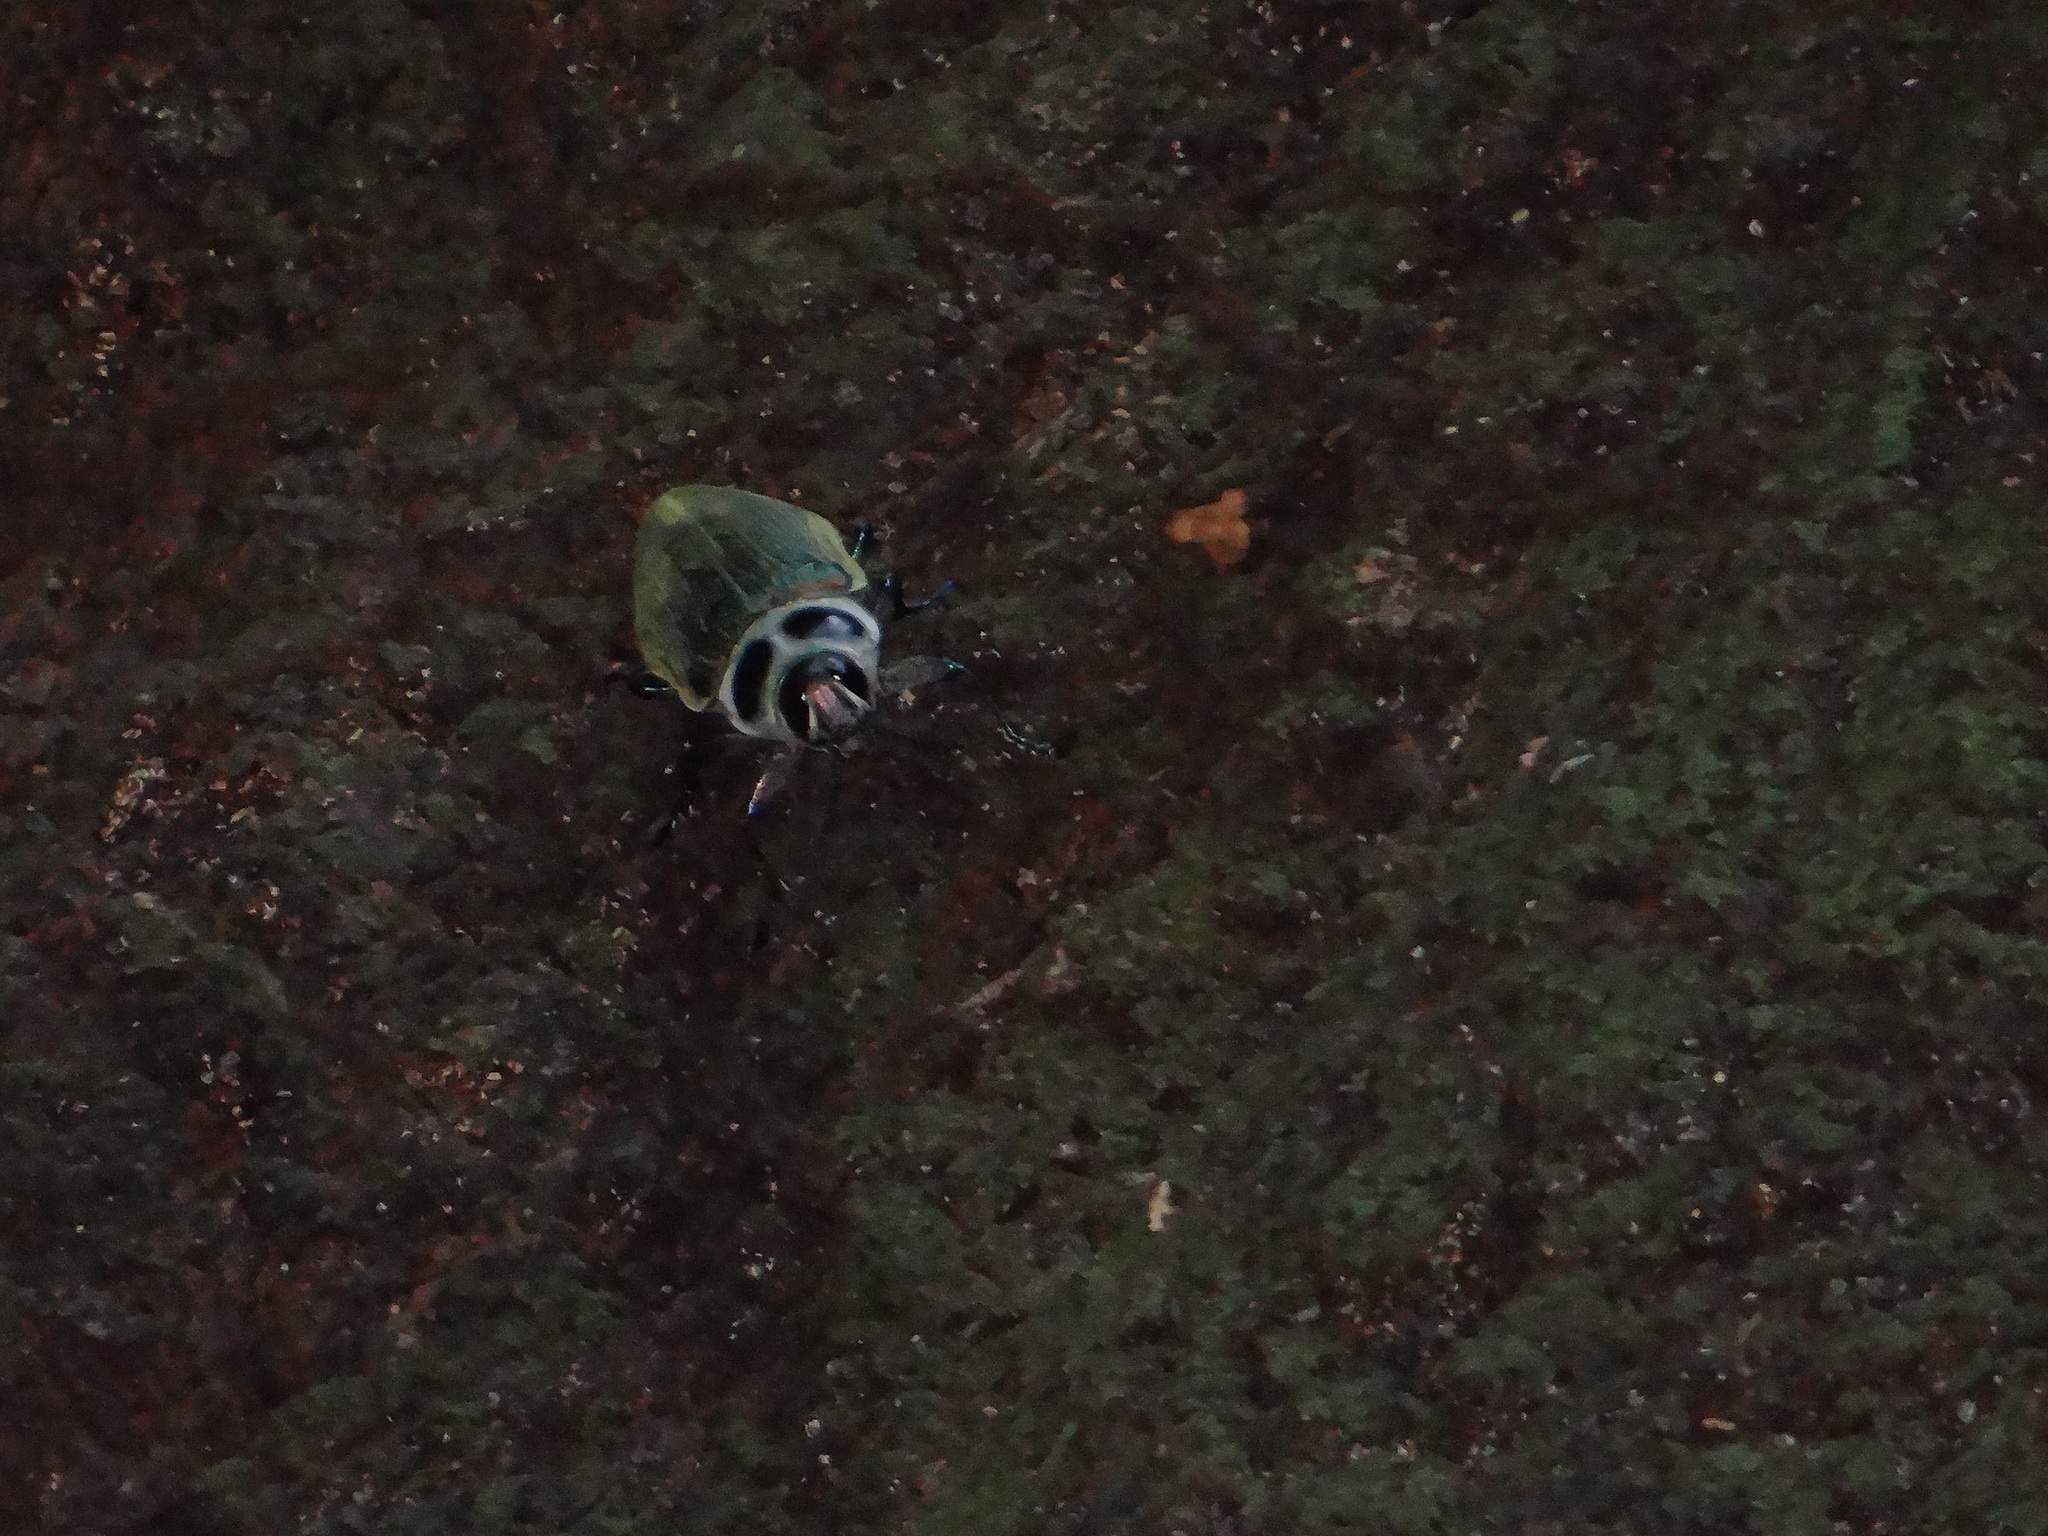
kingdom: Animalia
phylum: Arthropoda
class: Insecta
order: Coleoptera
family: Buprestidae
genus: Euchroma
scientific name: Euchroma giganteum
